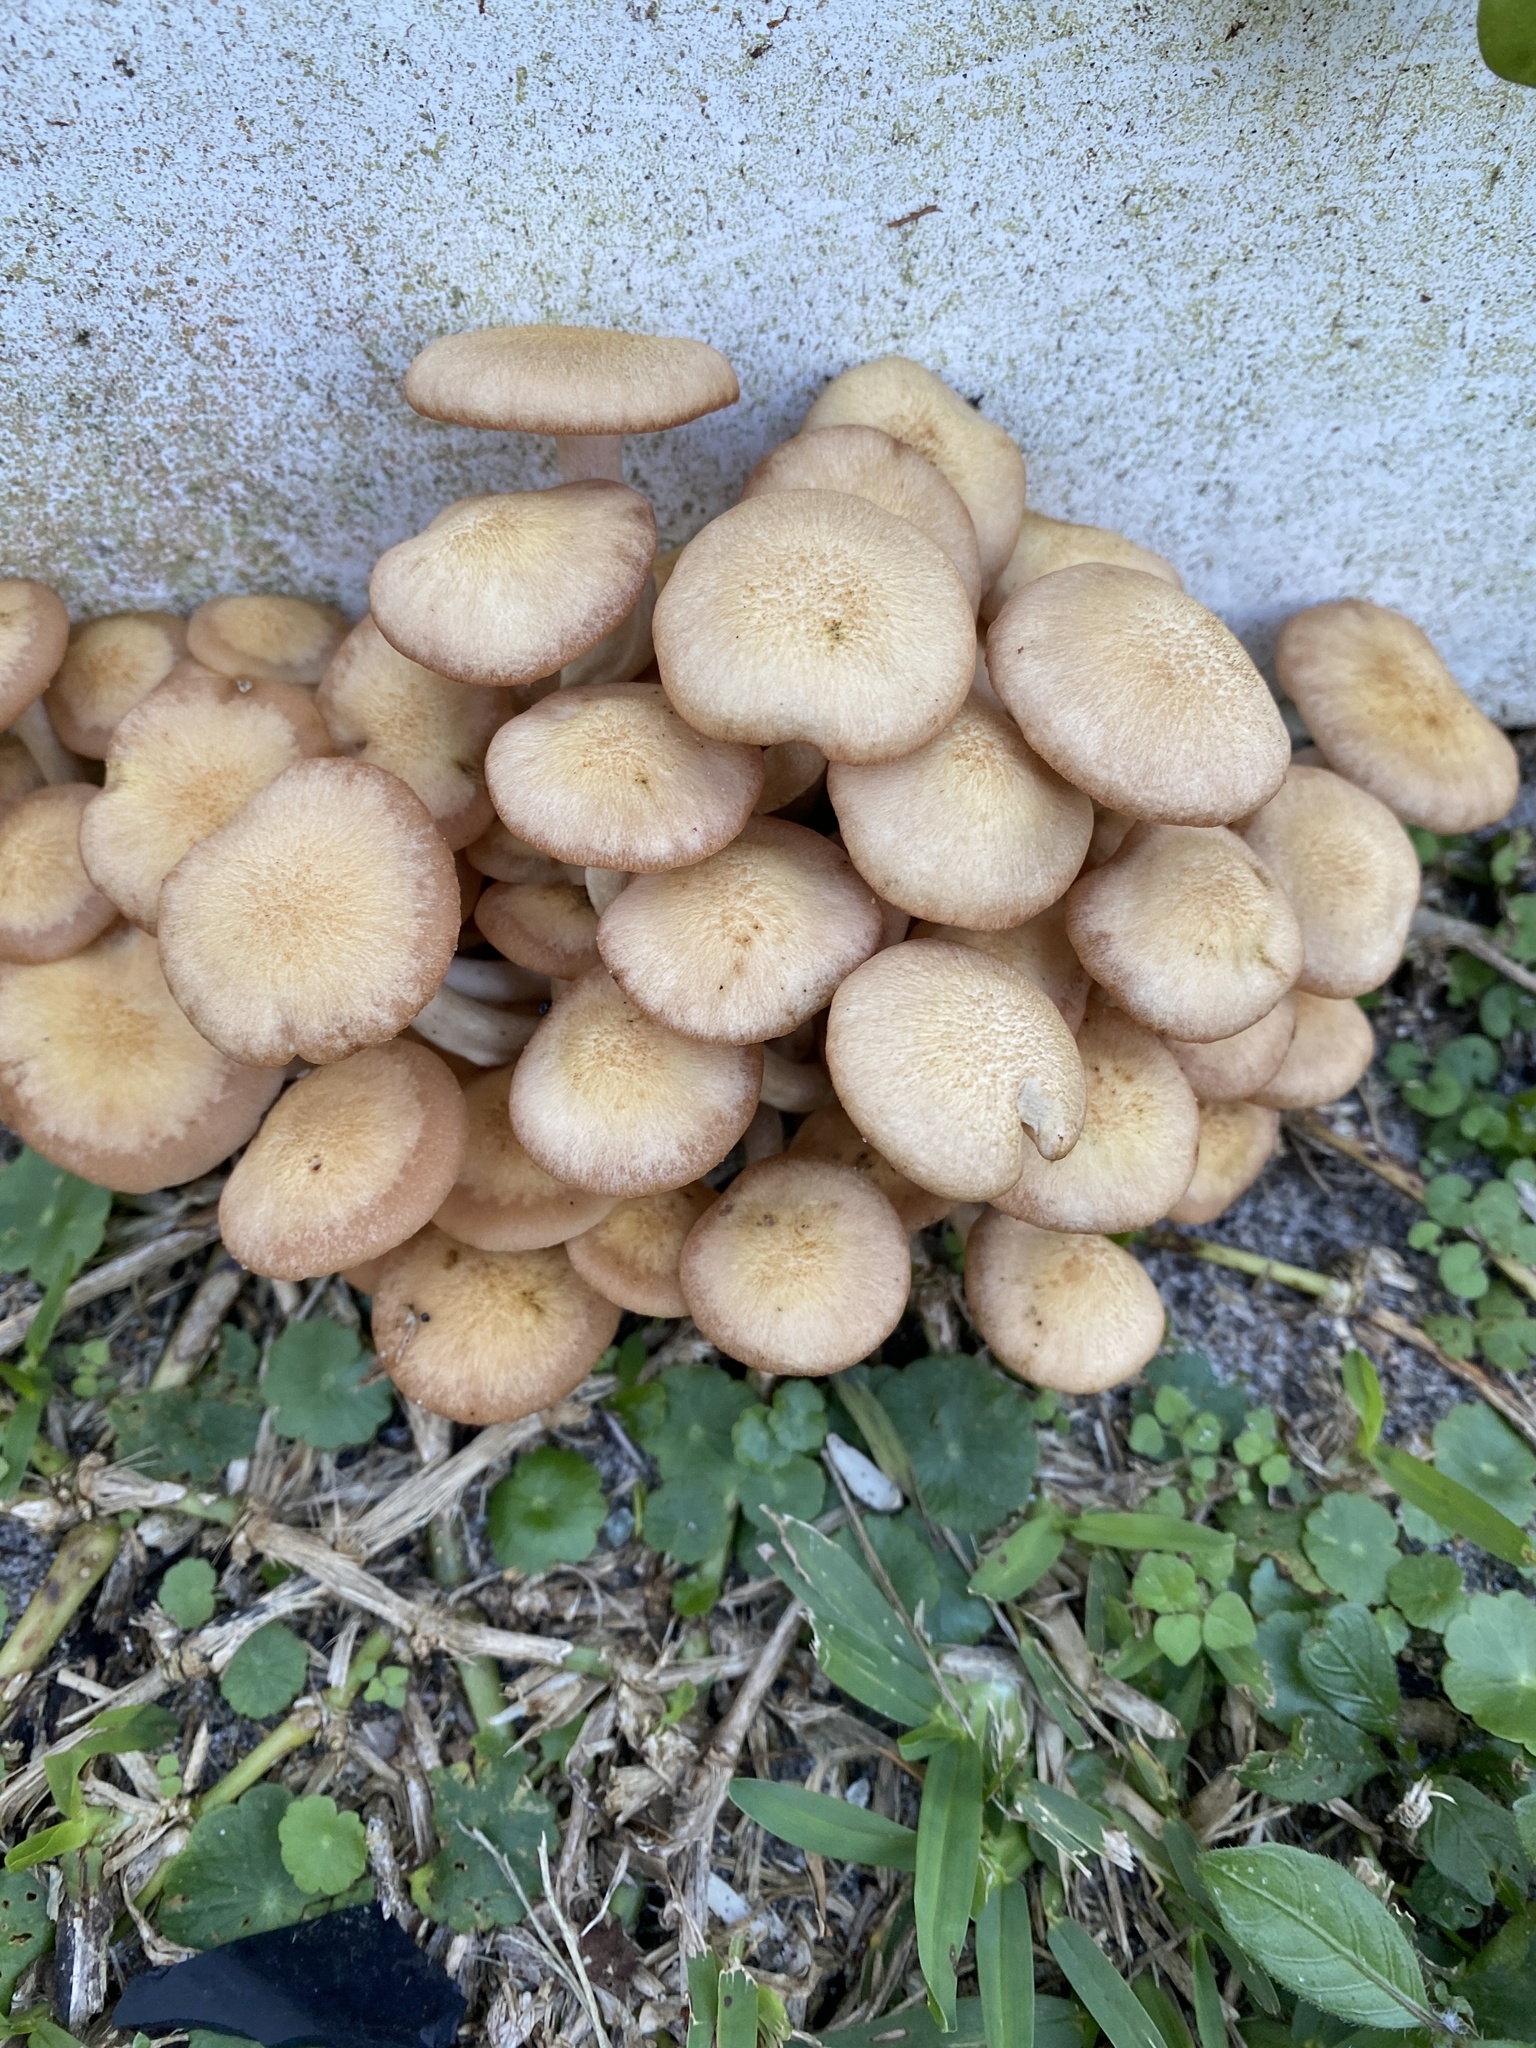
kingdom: Fungi
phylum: Basidiomycota
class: Agaricomycetes
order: Agaricales
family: Physalacriaceae
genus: Desarmillaria
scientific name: Desarmillaria caespitosa
